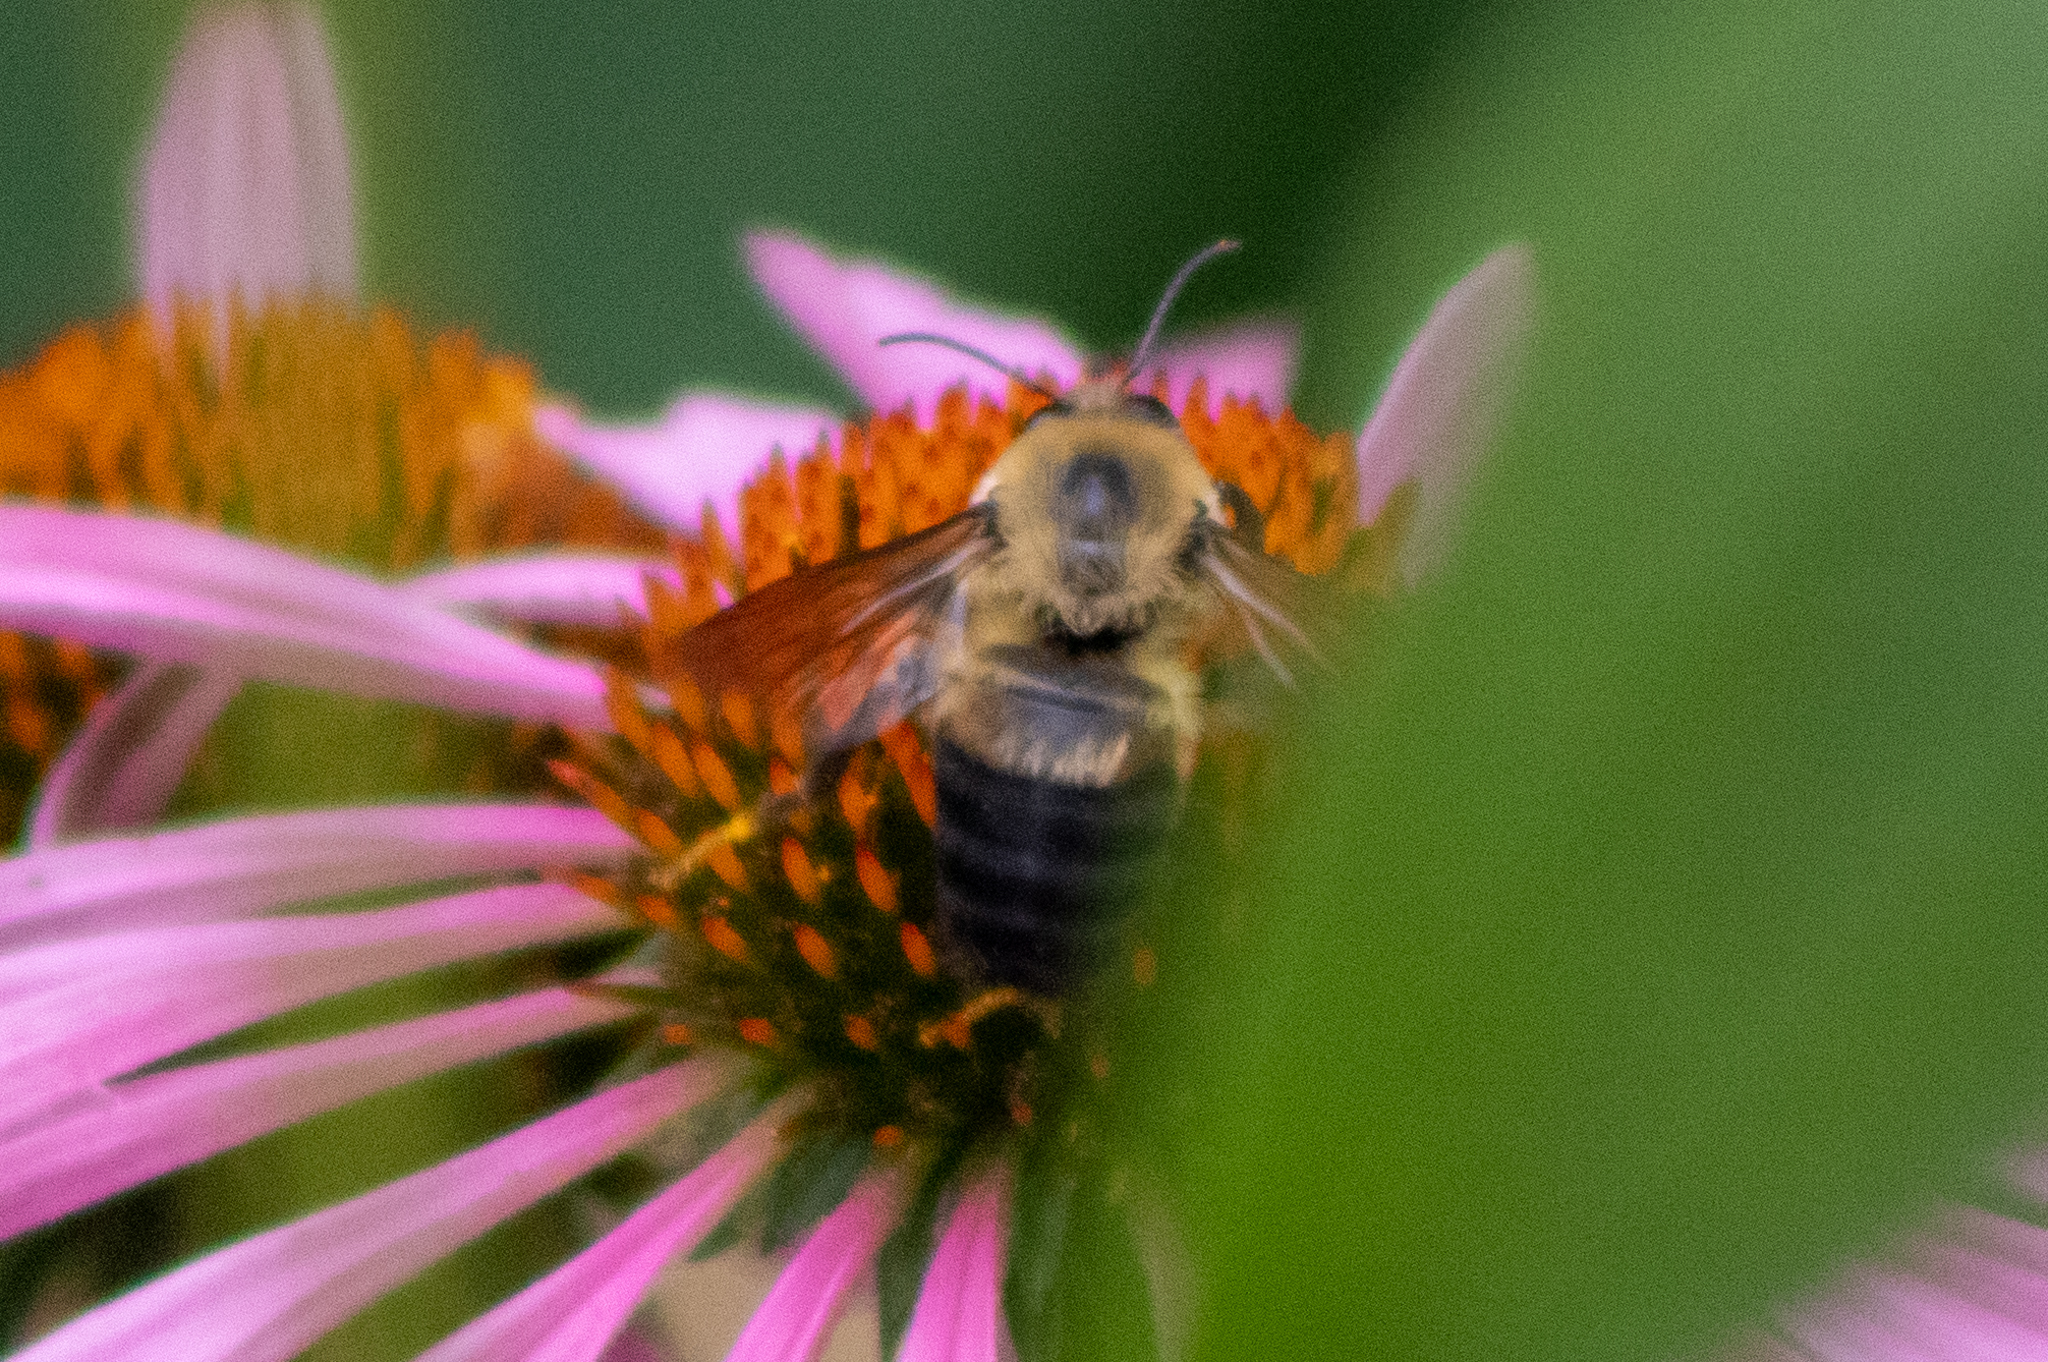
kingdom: Animalia
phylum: Arthropoda
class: Insecta
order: Hymenoptera
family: Apidae
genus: Bombus
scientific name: Bombus griseocollis
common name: Brown-belted bumble bee
